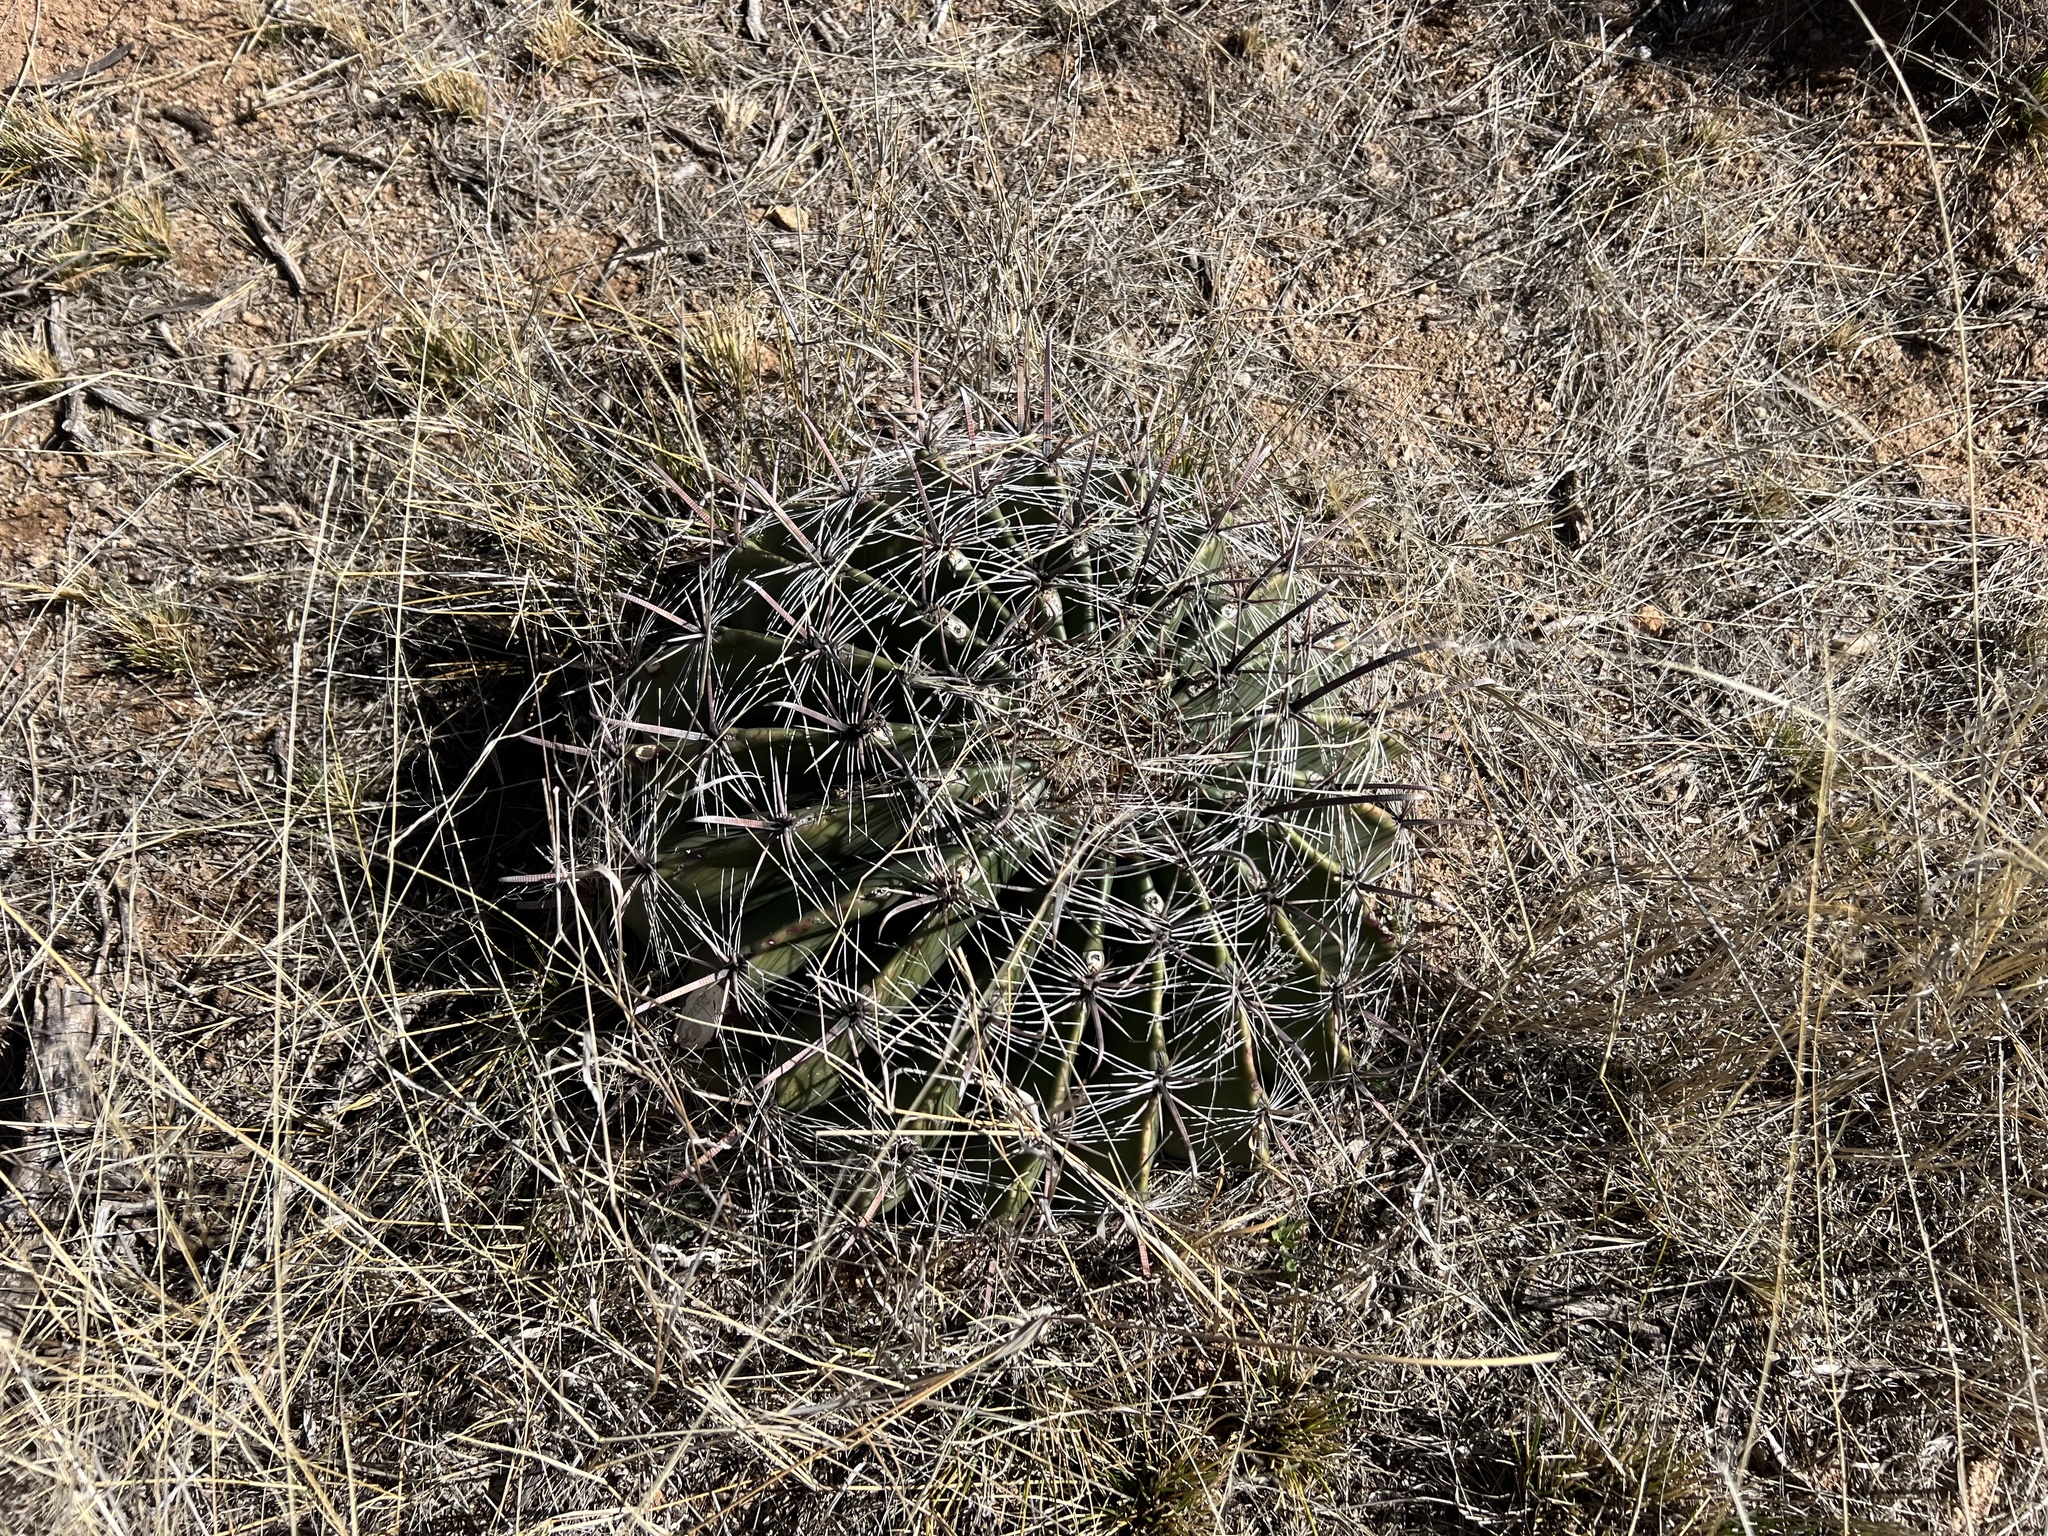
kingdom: Plantae
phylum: Tracheophyta
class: Magnoliopsida
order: Caryophyllales
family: Cactaceae
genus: Ferocactus
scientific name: Ferocactus wislizeni
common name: Candy barrel cactus
